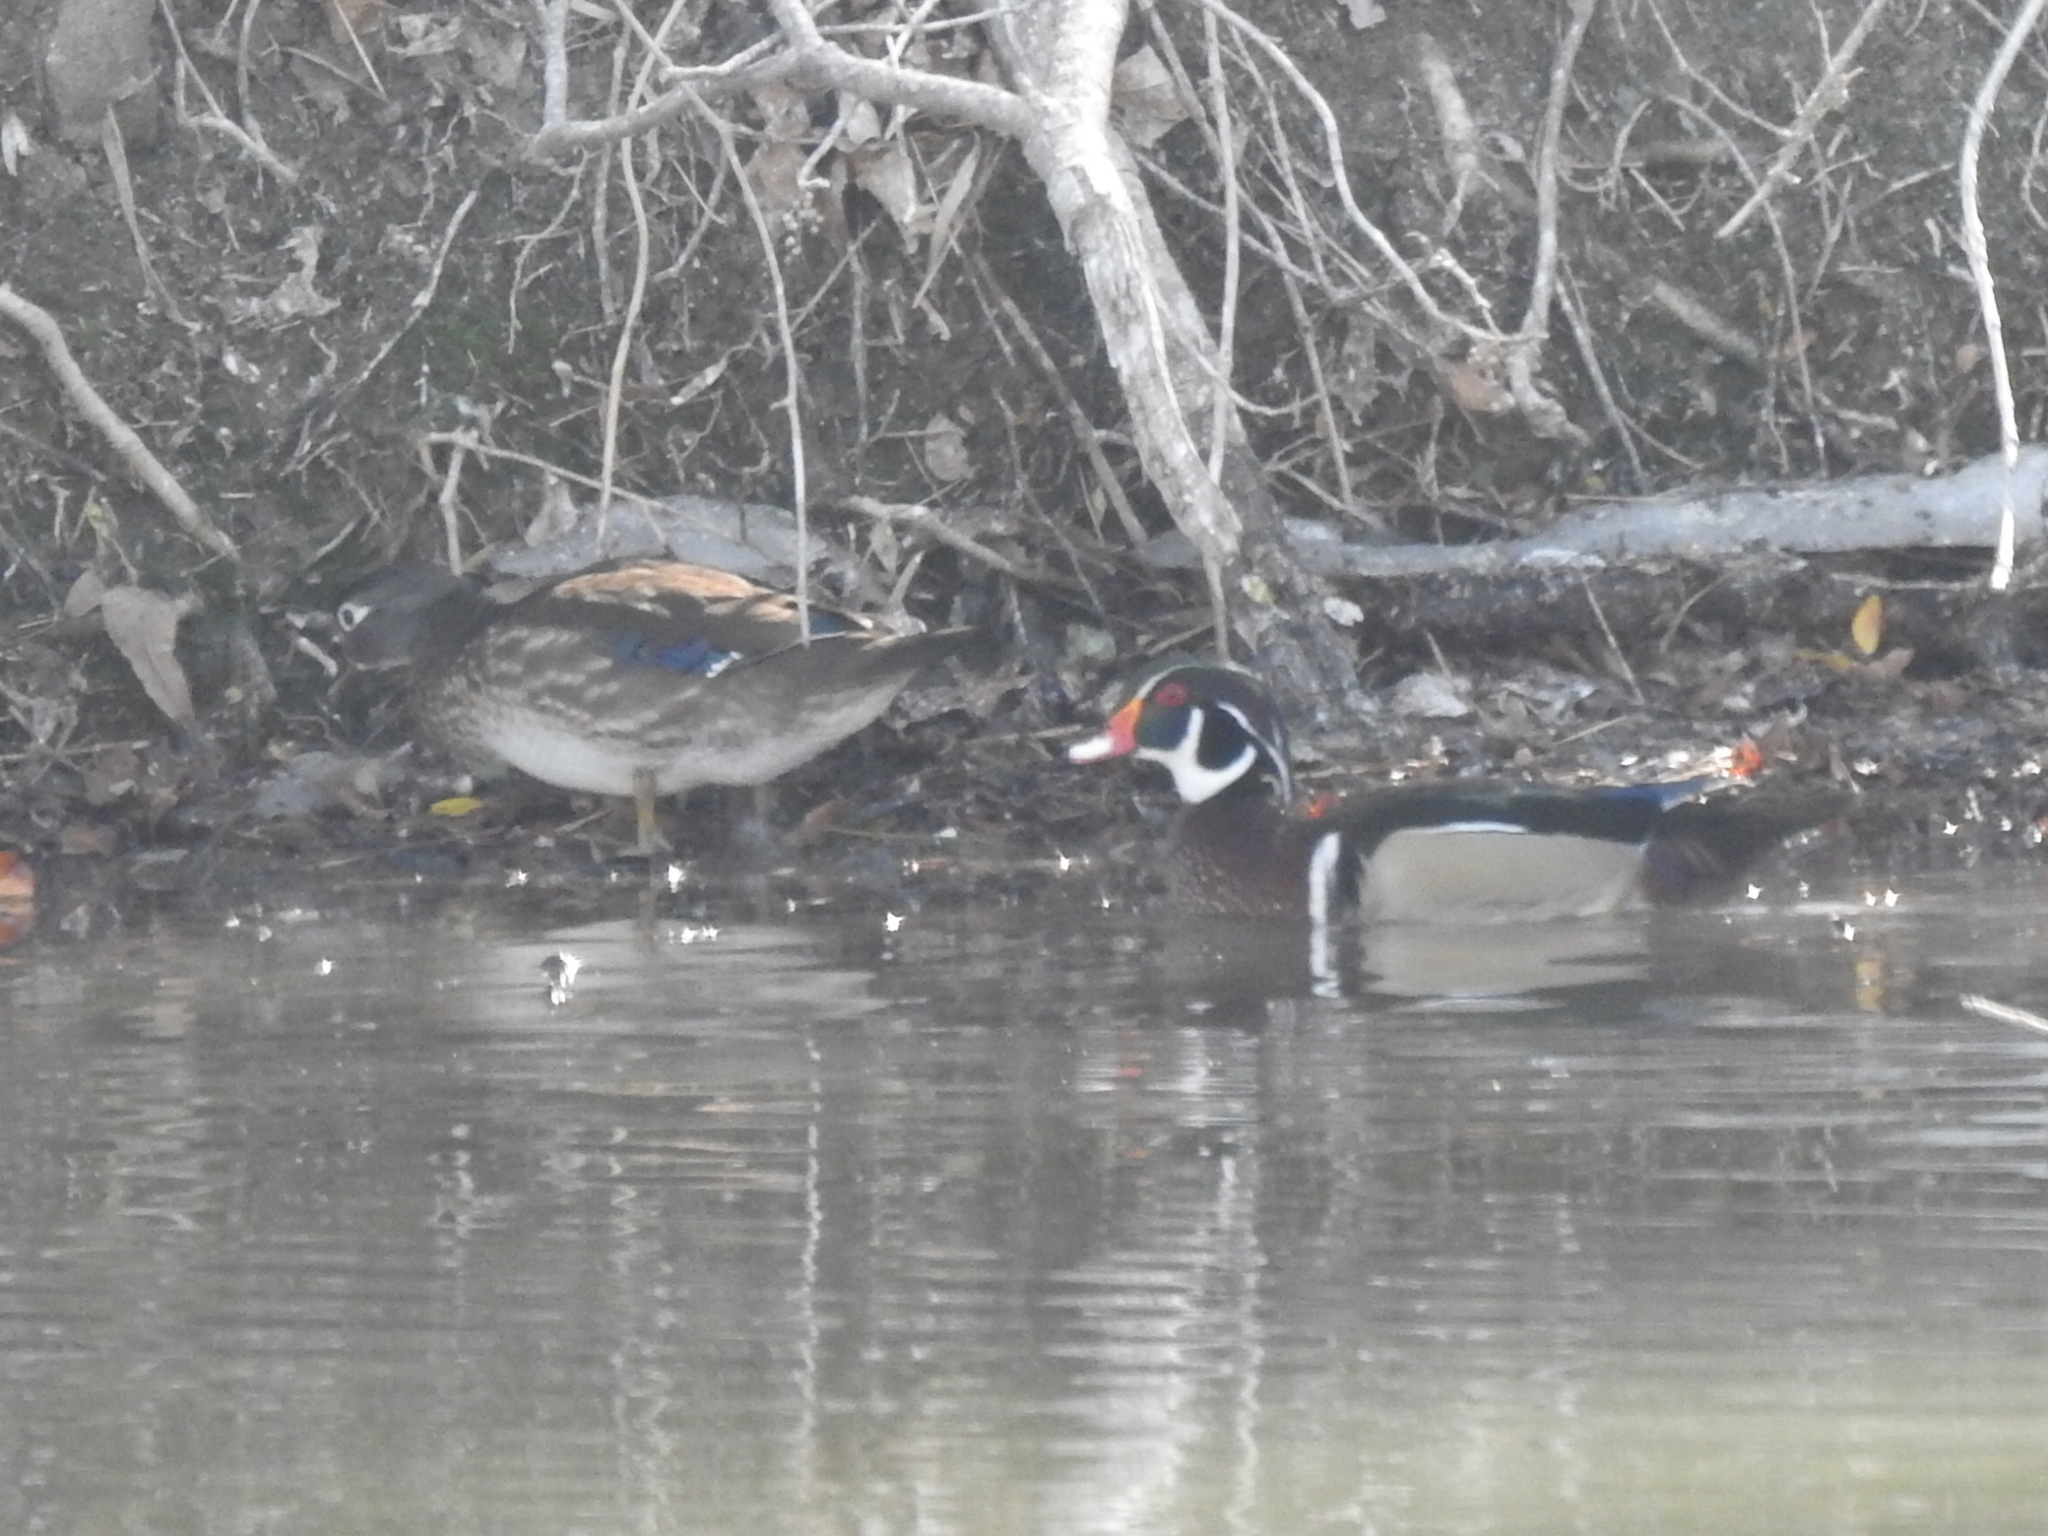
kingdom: Animalia
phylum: Chordata
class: Aves
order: Anseriformes
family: Anatidae
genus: Aix
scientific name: Aix sponsa
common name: Wood duck
